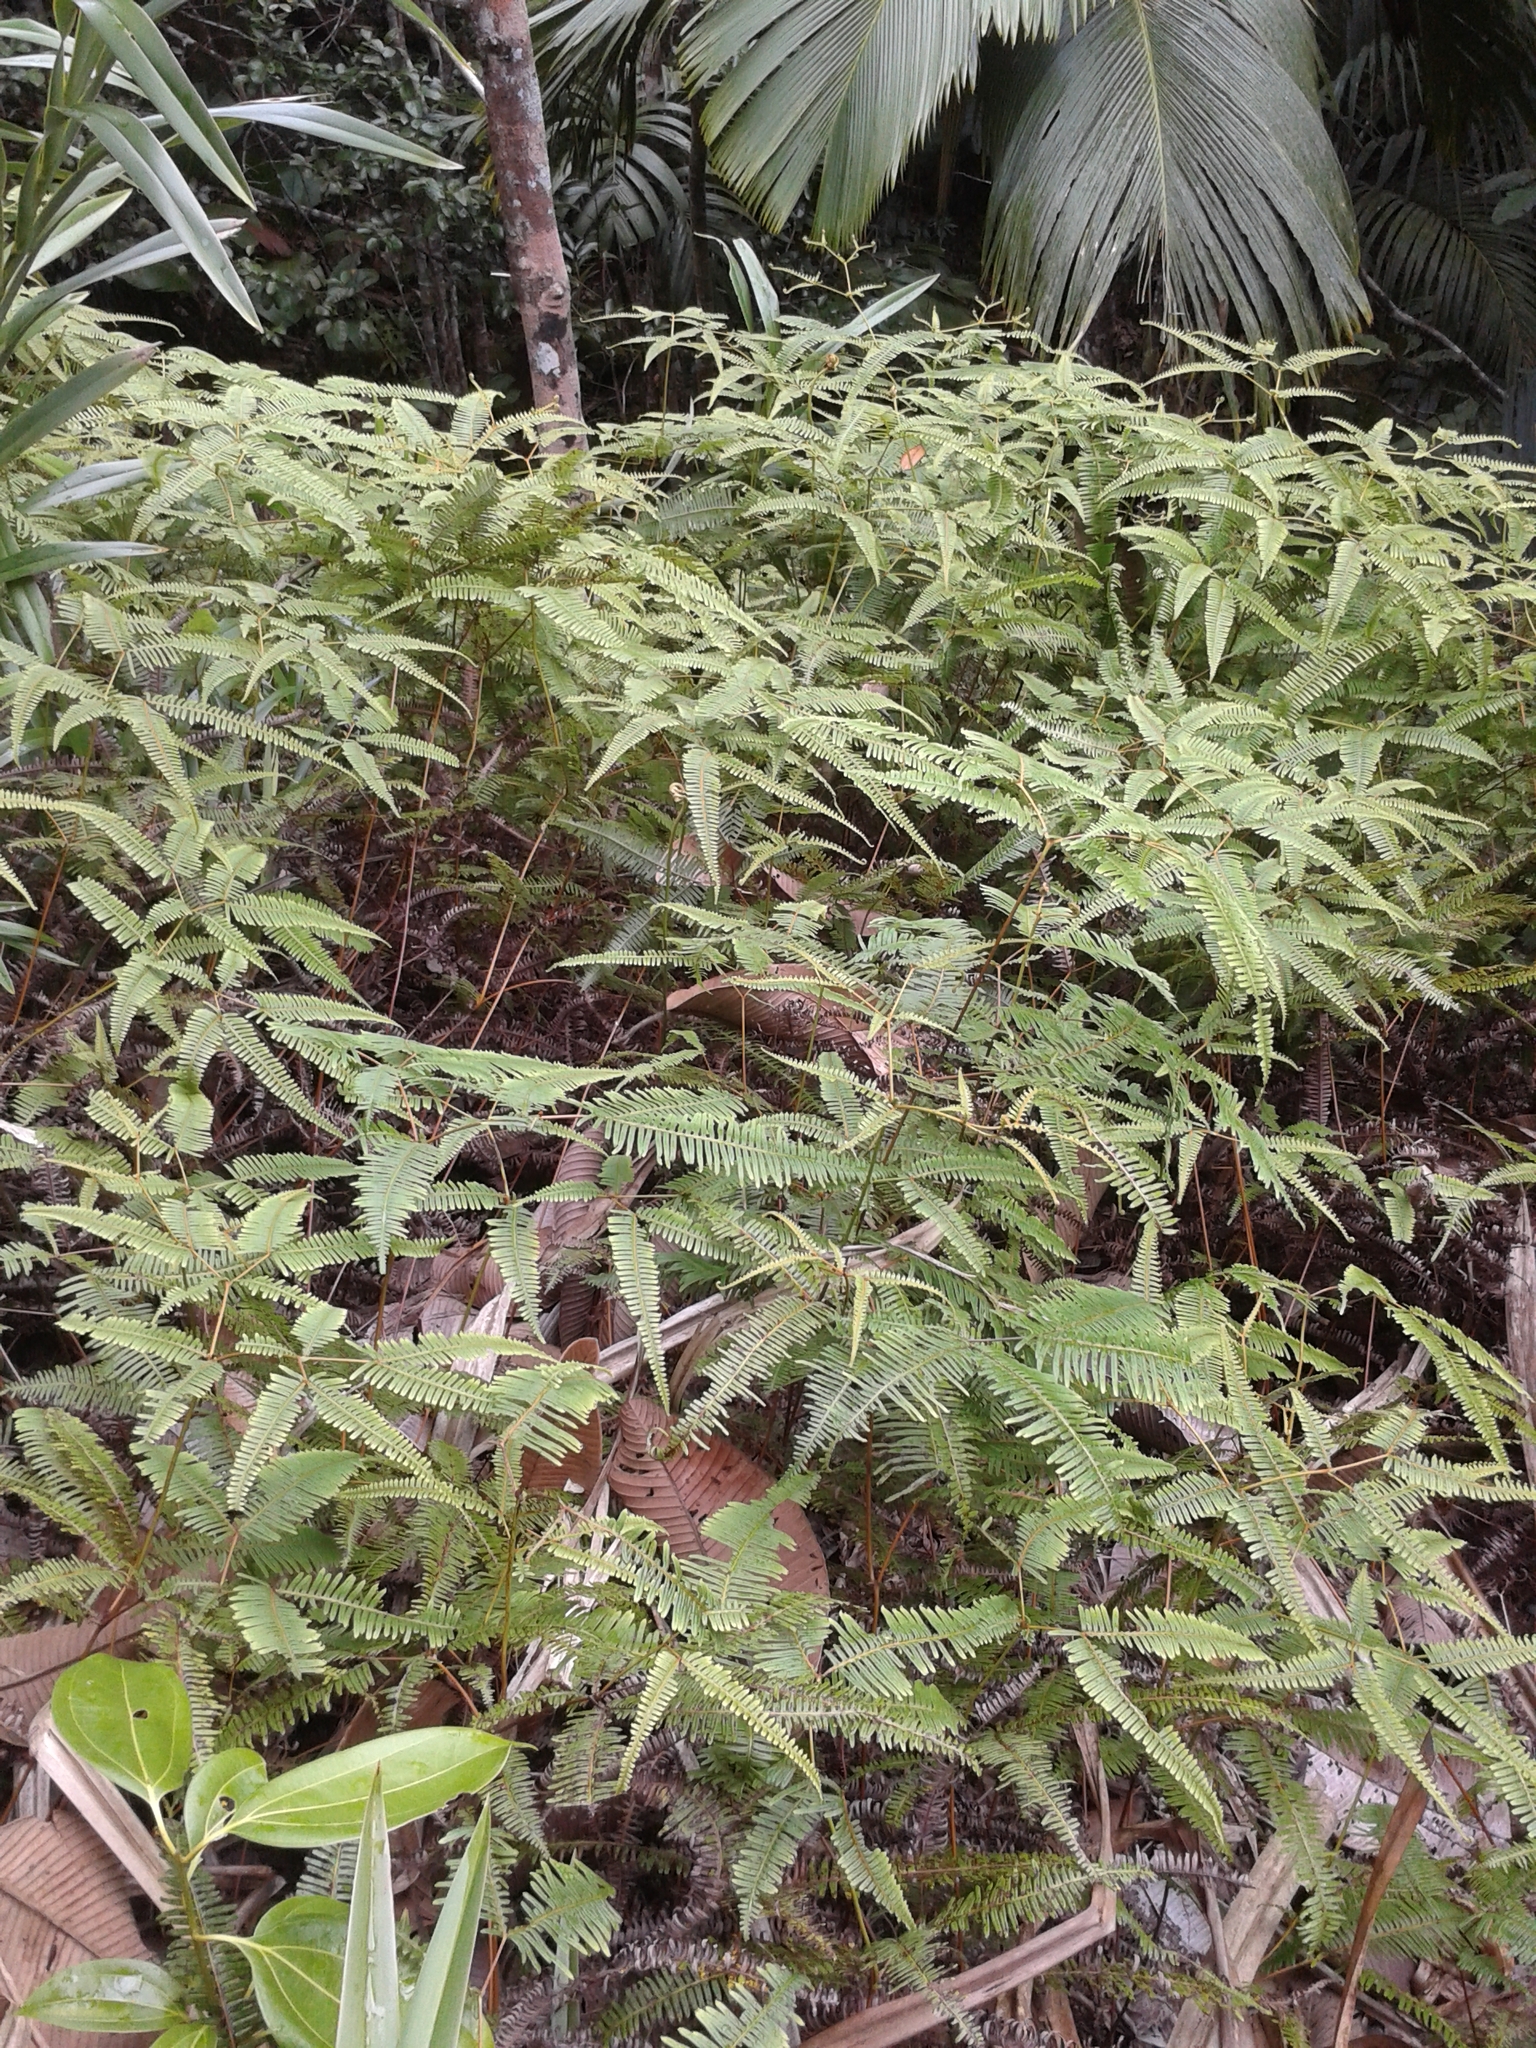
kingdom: Plantae
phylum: Tracheophyta
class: Polypodiopsida
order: Gleicheniales
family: Gleicheniaceae
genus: Dicranopteris
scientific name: Dicranopteris linearis
